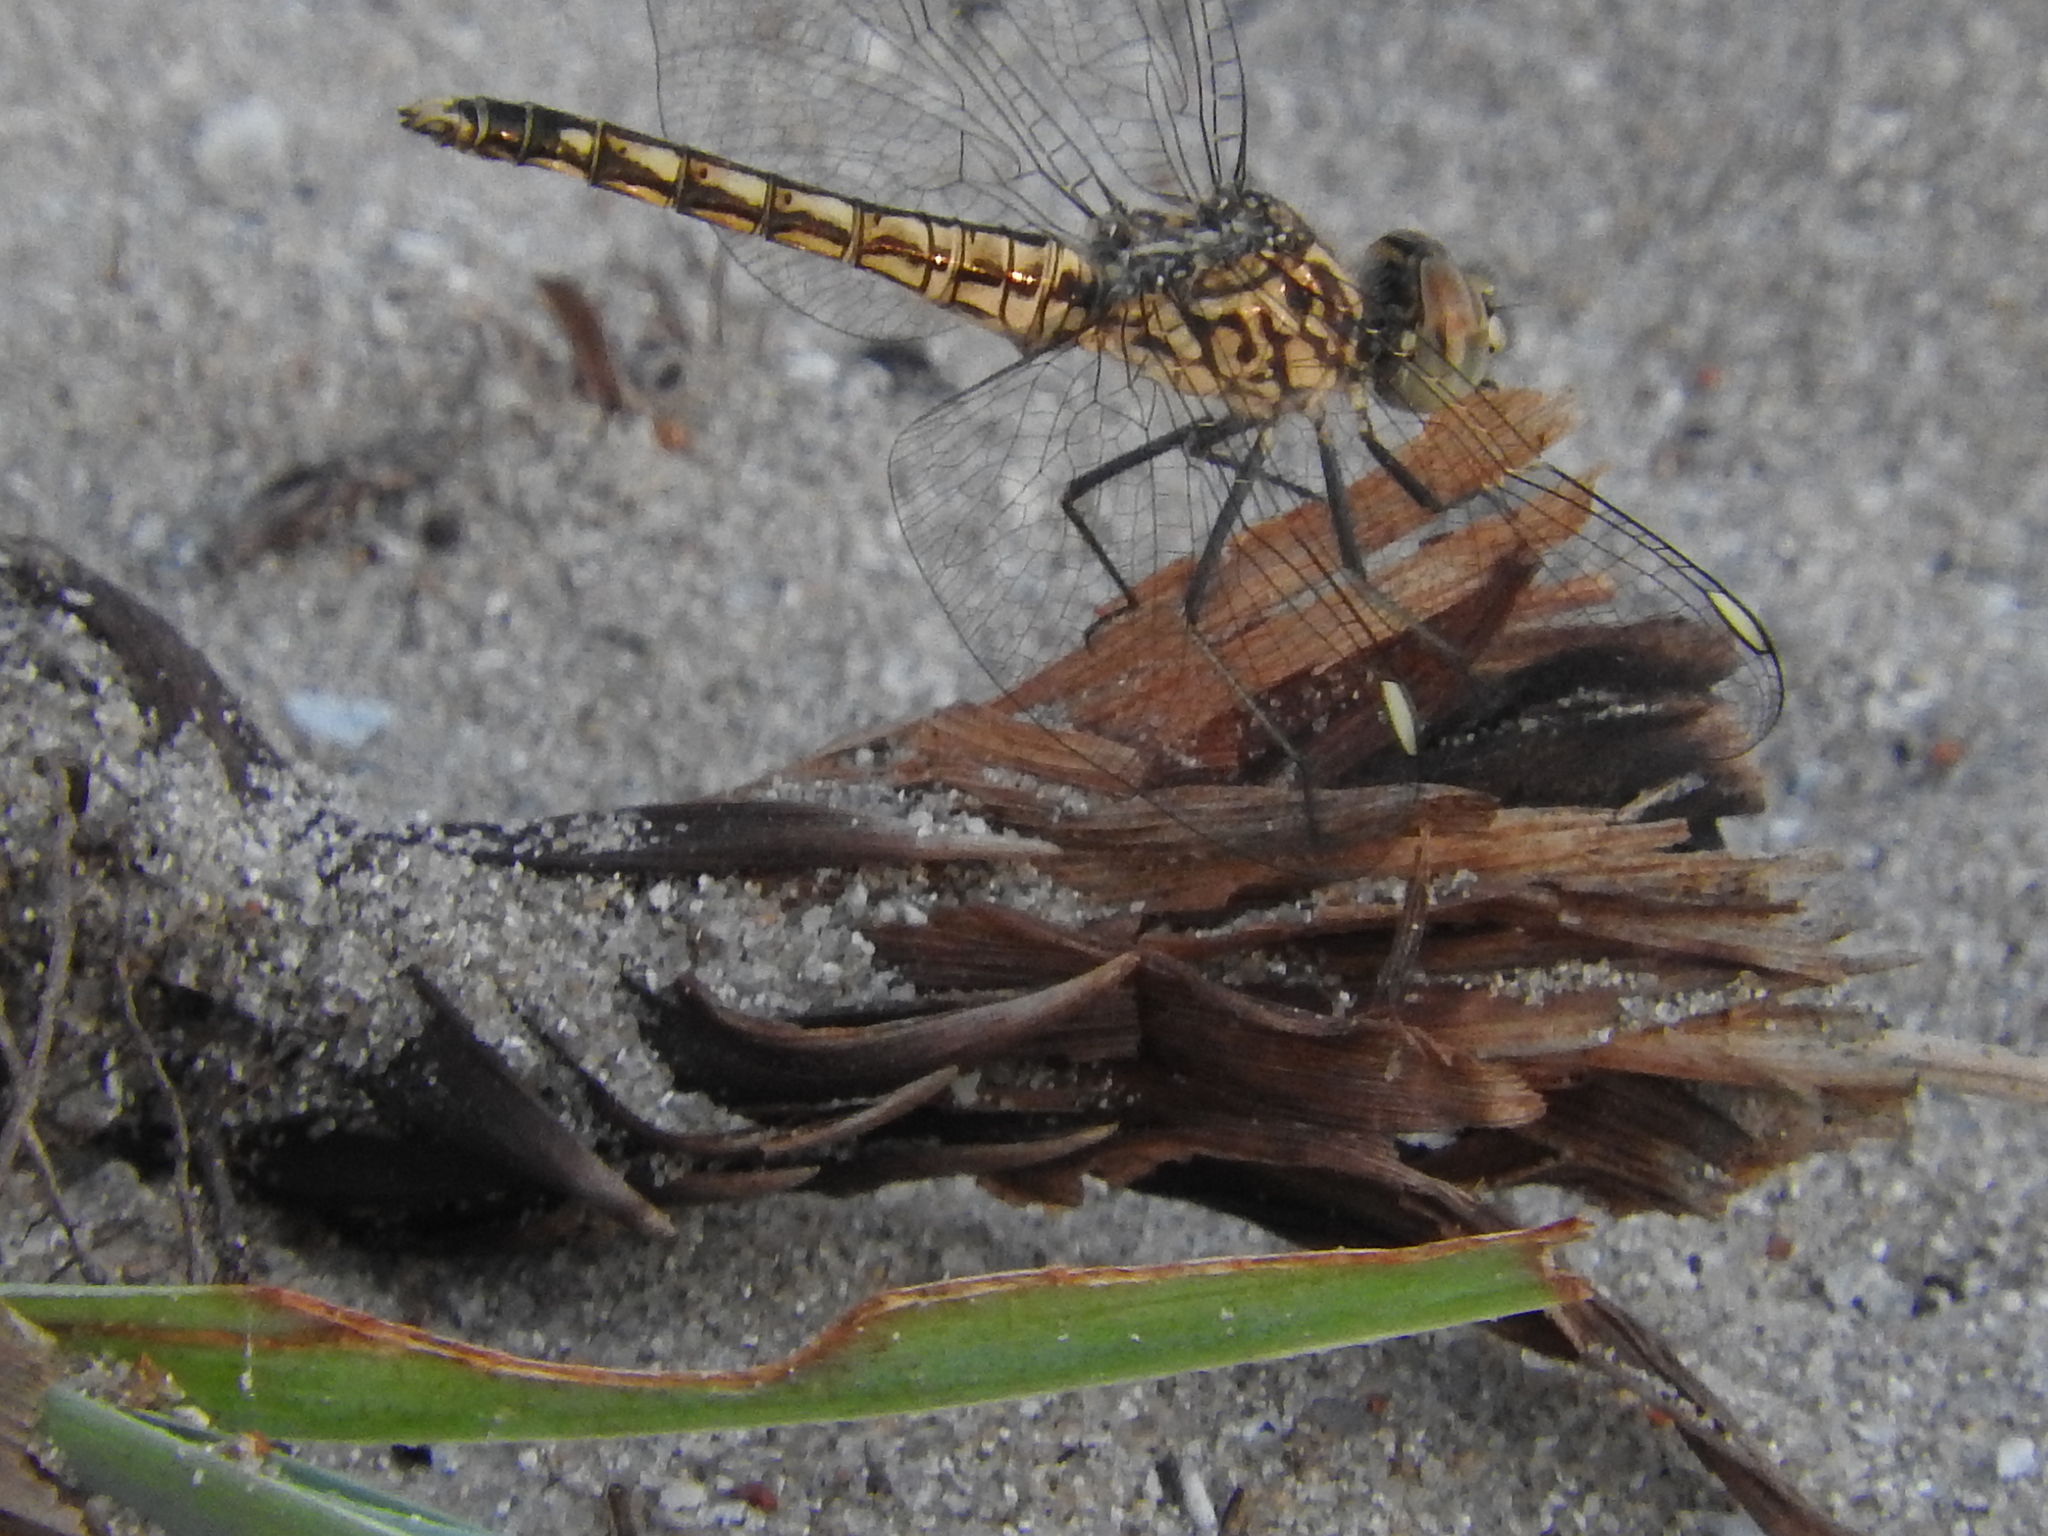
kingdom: Animalia
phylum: Arthropoda
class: Insecta
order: Odonata
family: Libellulidae
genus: Brachythemis
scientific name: Brachythemis leucosticta
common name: Banded groundling
